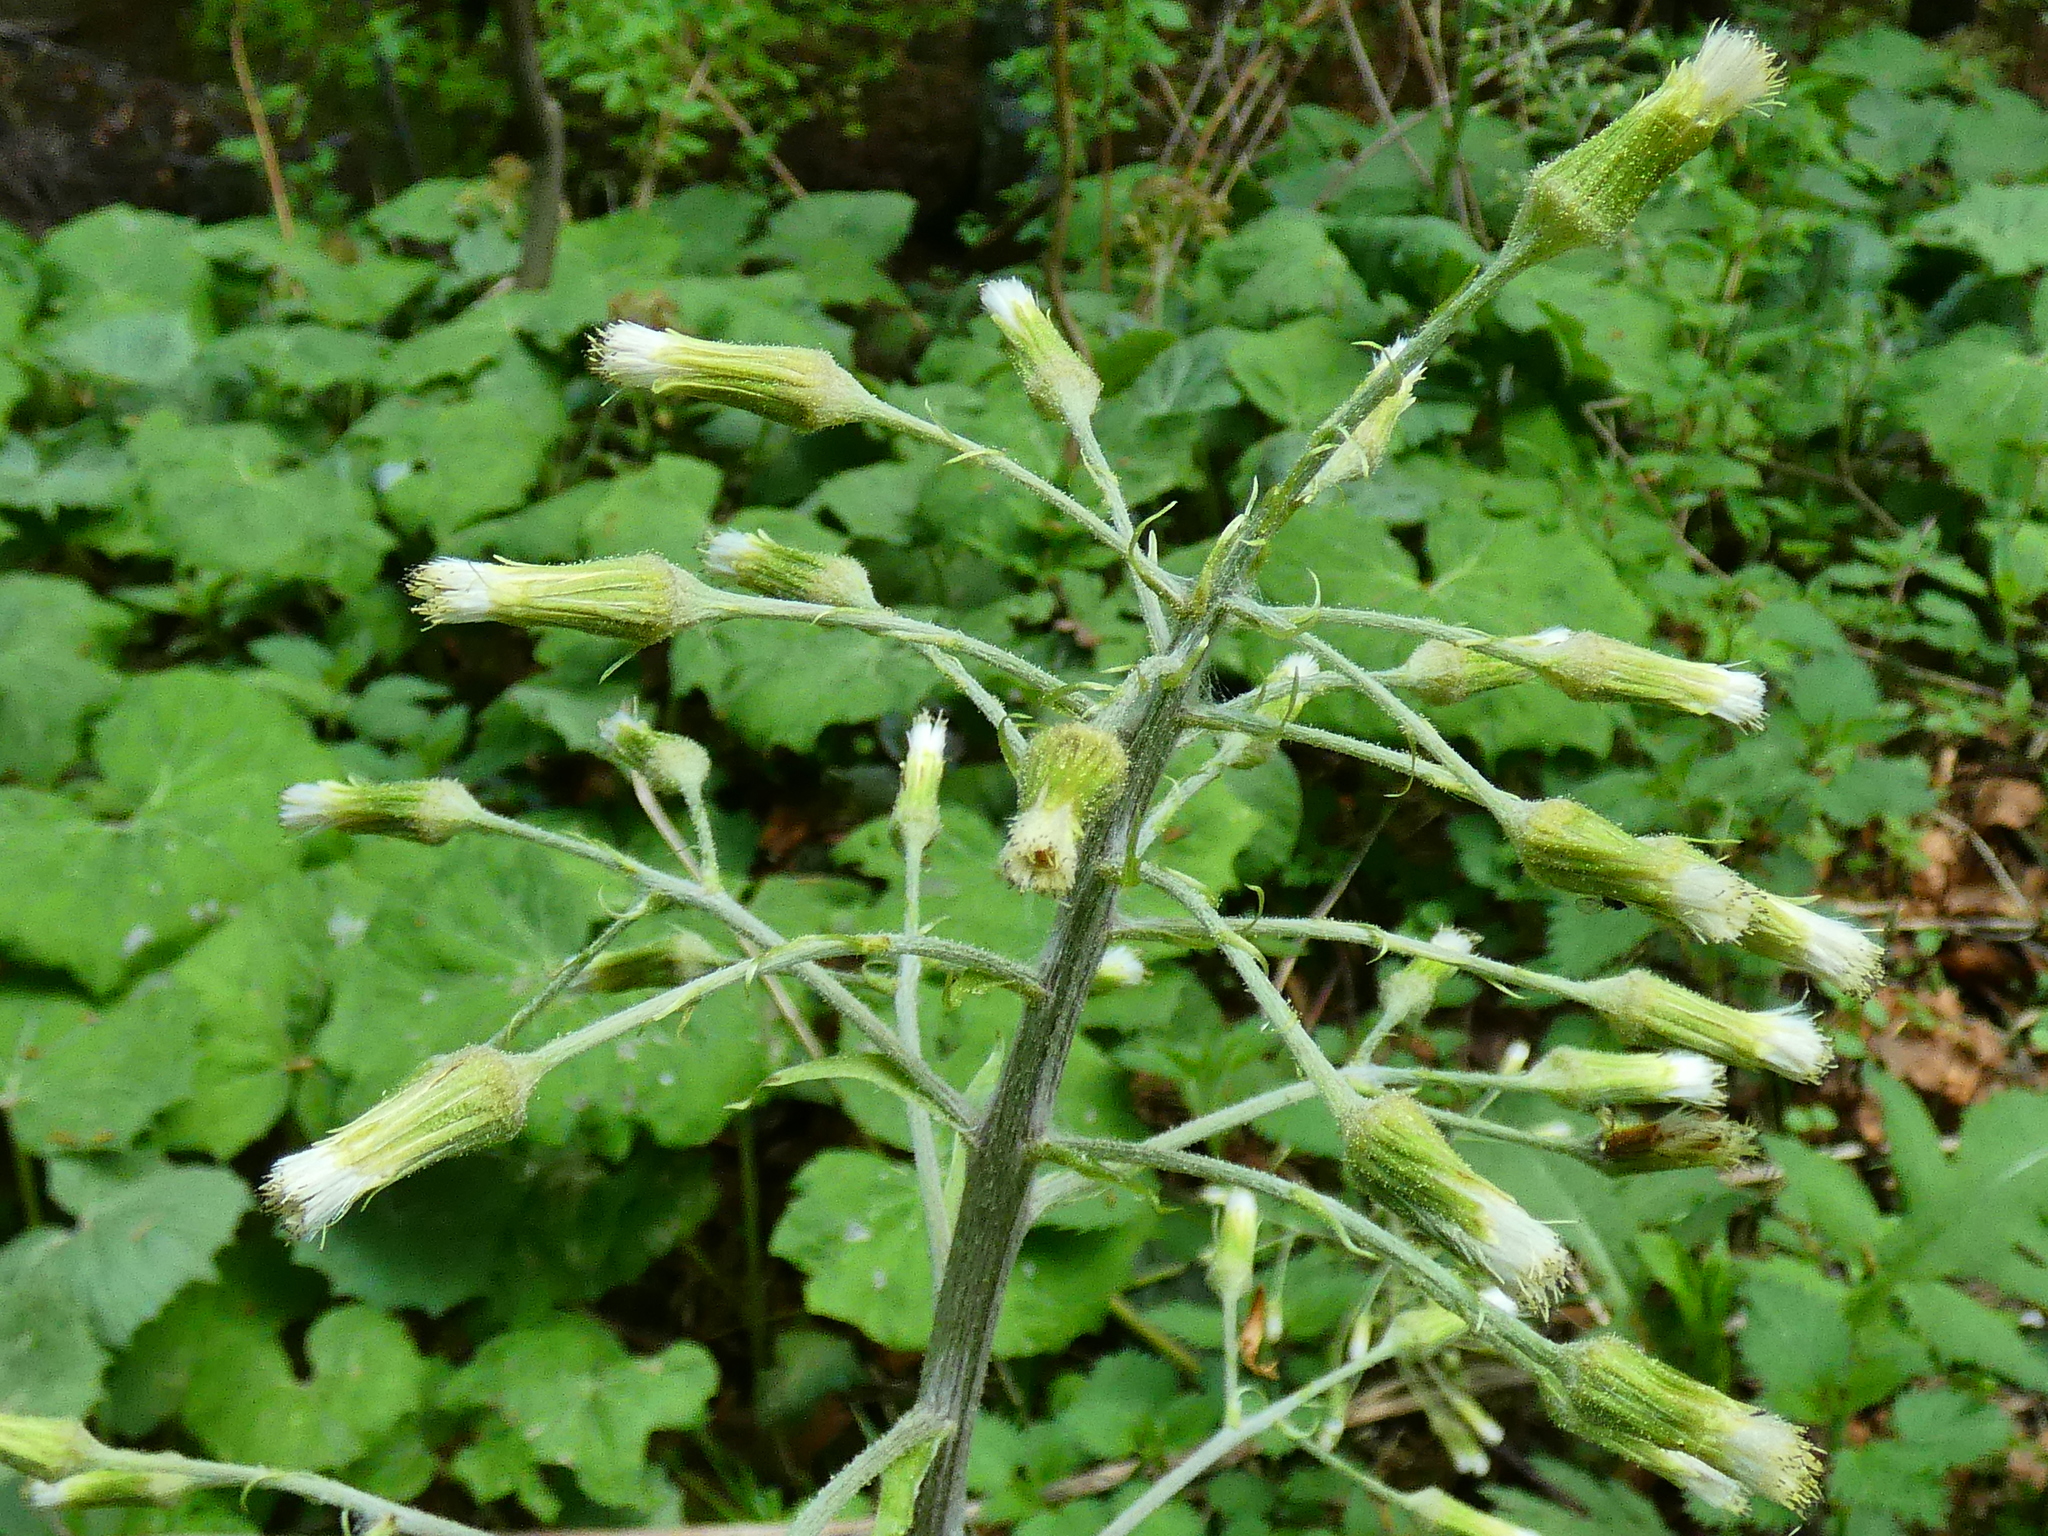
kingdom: Plantae
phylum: Tracheophyta
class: Magnoliopsida
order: Asterales
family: Asteraceae
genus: Petasites
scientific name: Petasites albus
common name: White butterbur
